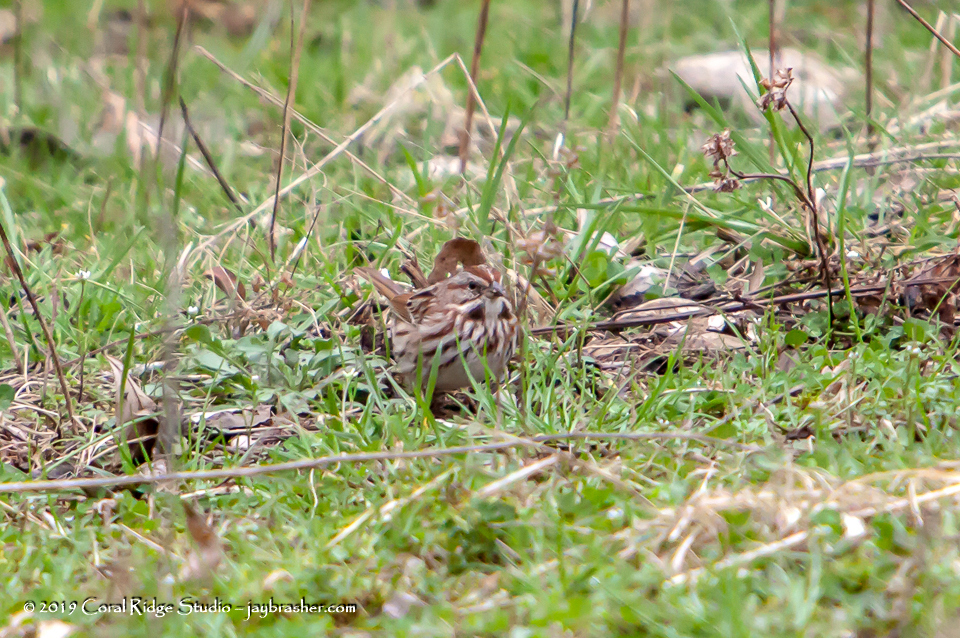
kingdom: Animalia
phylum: Chordata
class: Aves
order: Passeriformes
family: Passerellidae
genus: Melospiza
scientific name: Melospiza melodia
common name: Song sparrow
